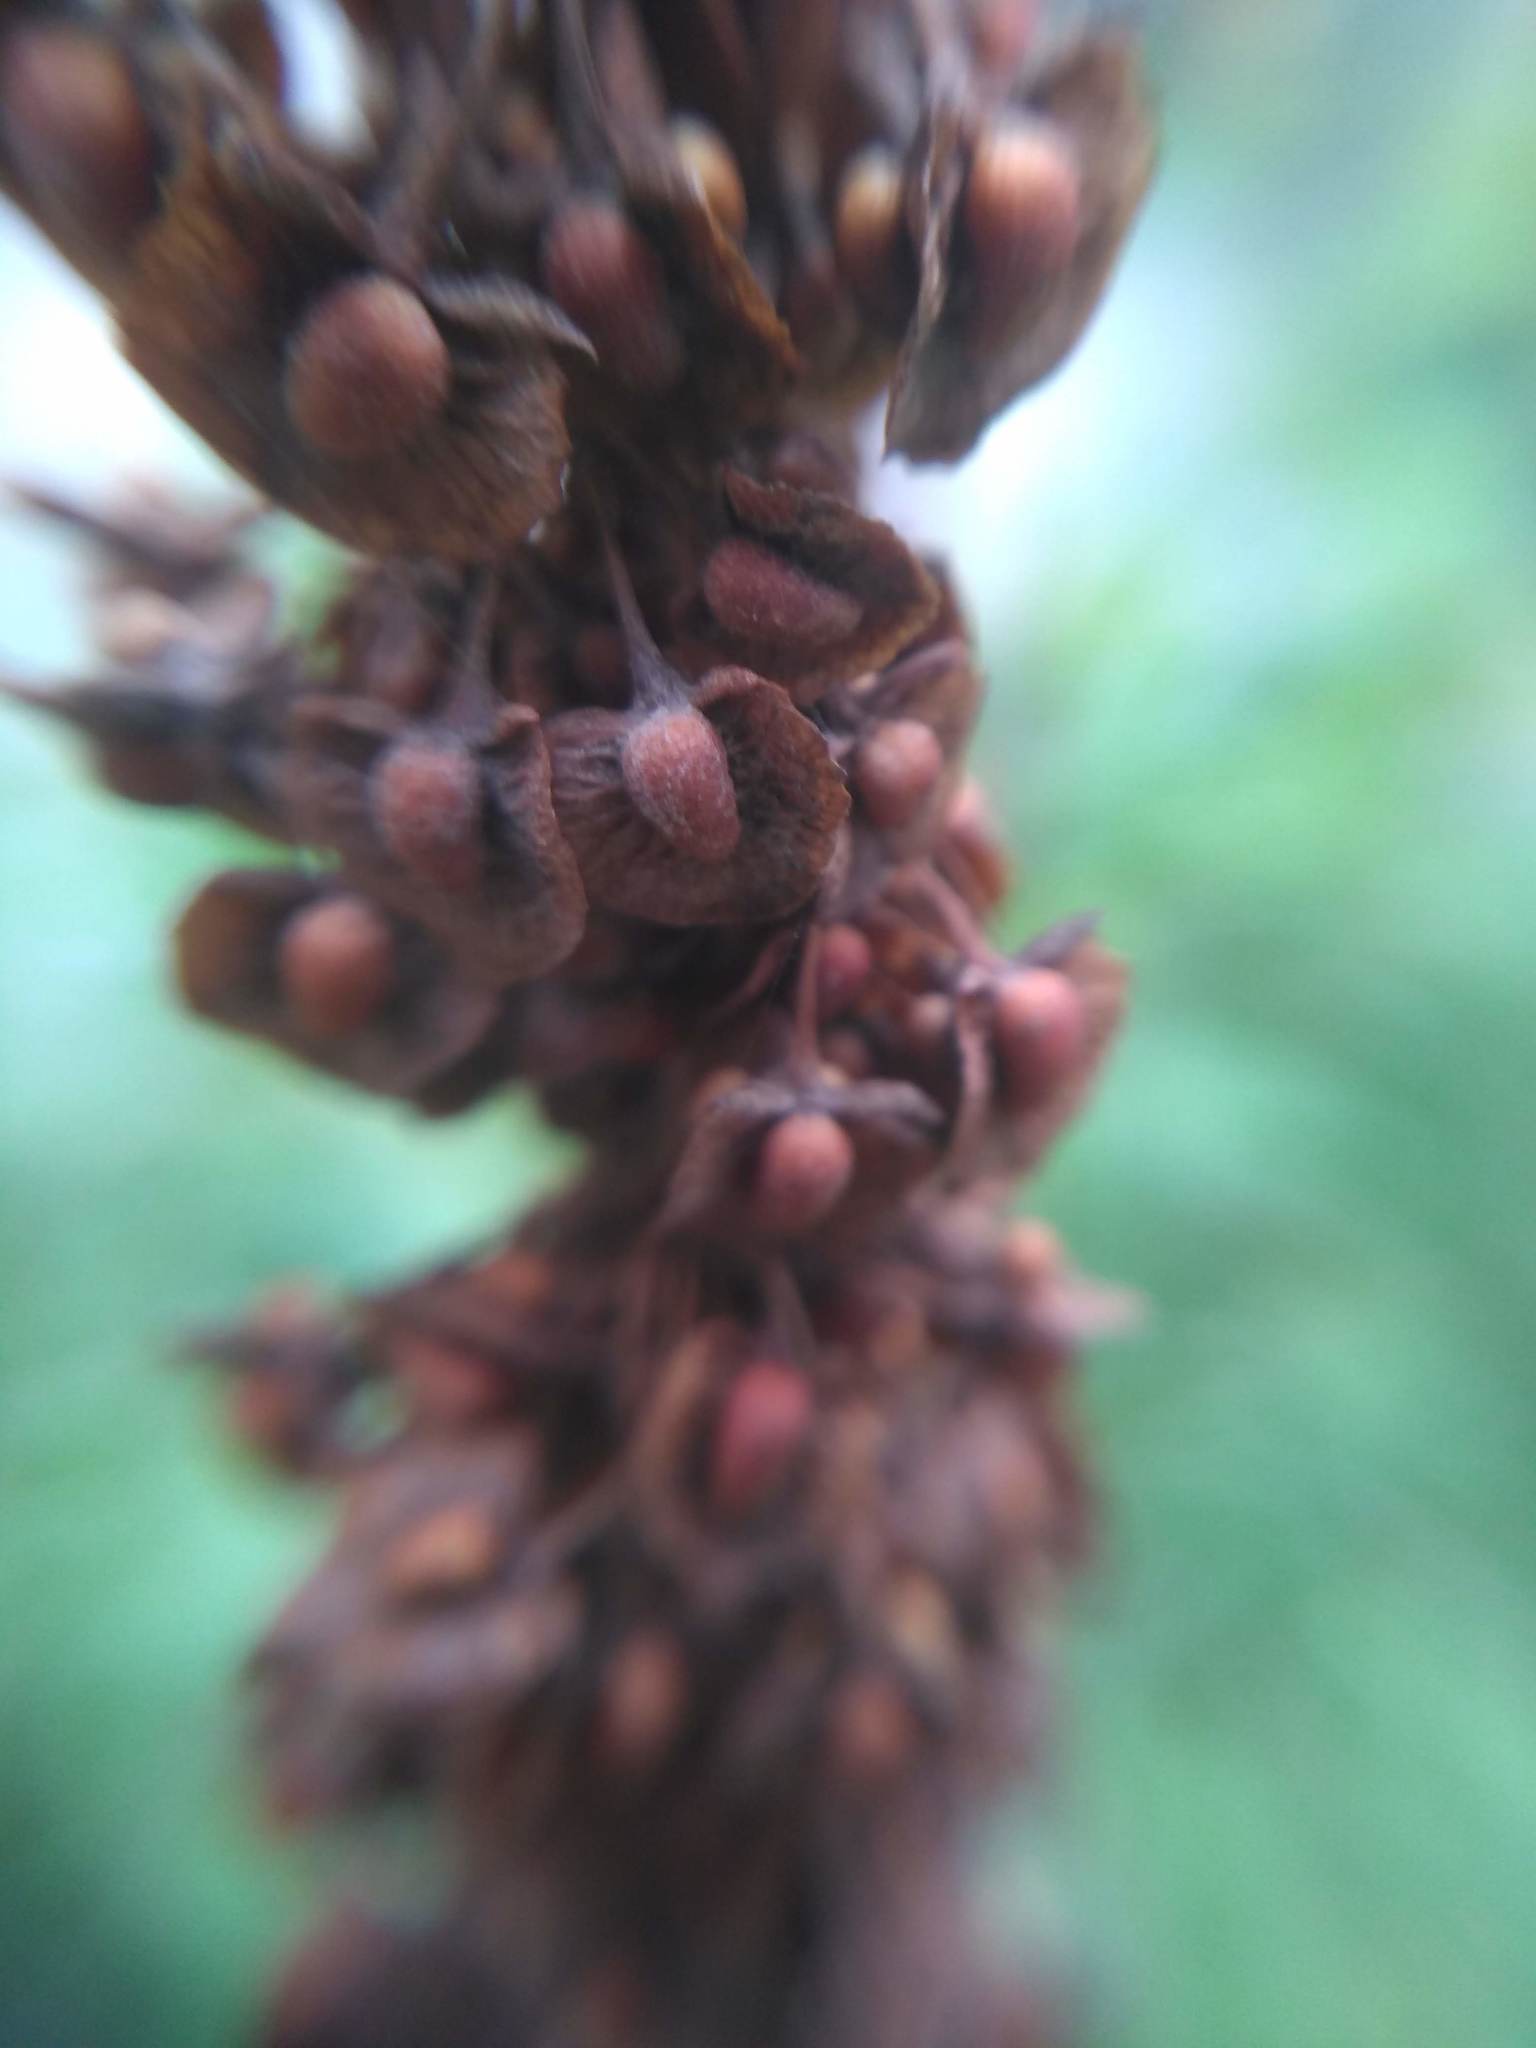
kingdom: Plantae
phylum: Tracheophyta
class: Magnoliopsida
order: Caryophyllales
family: Polygonaceae
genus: Rumex
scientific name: Rumex crispus
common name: Curled dock
